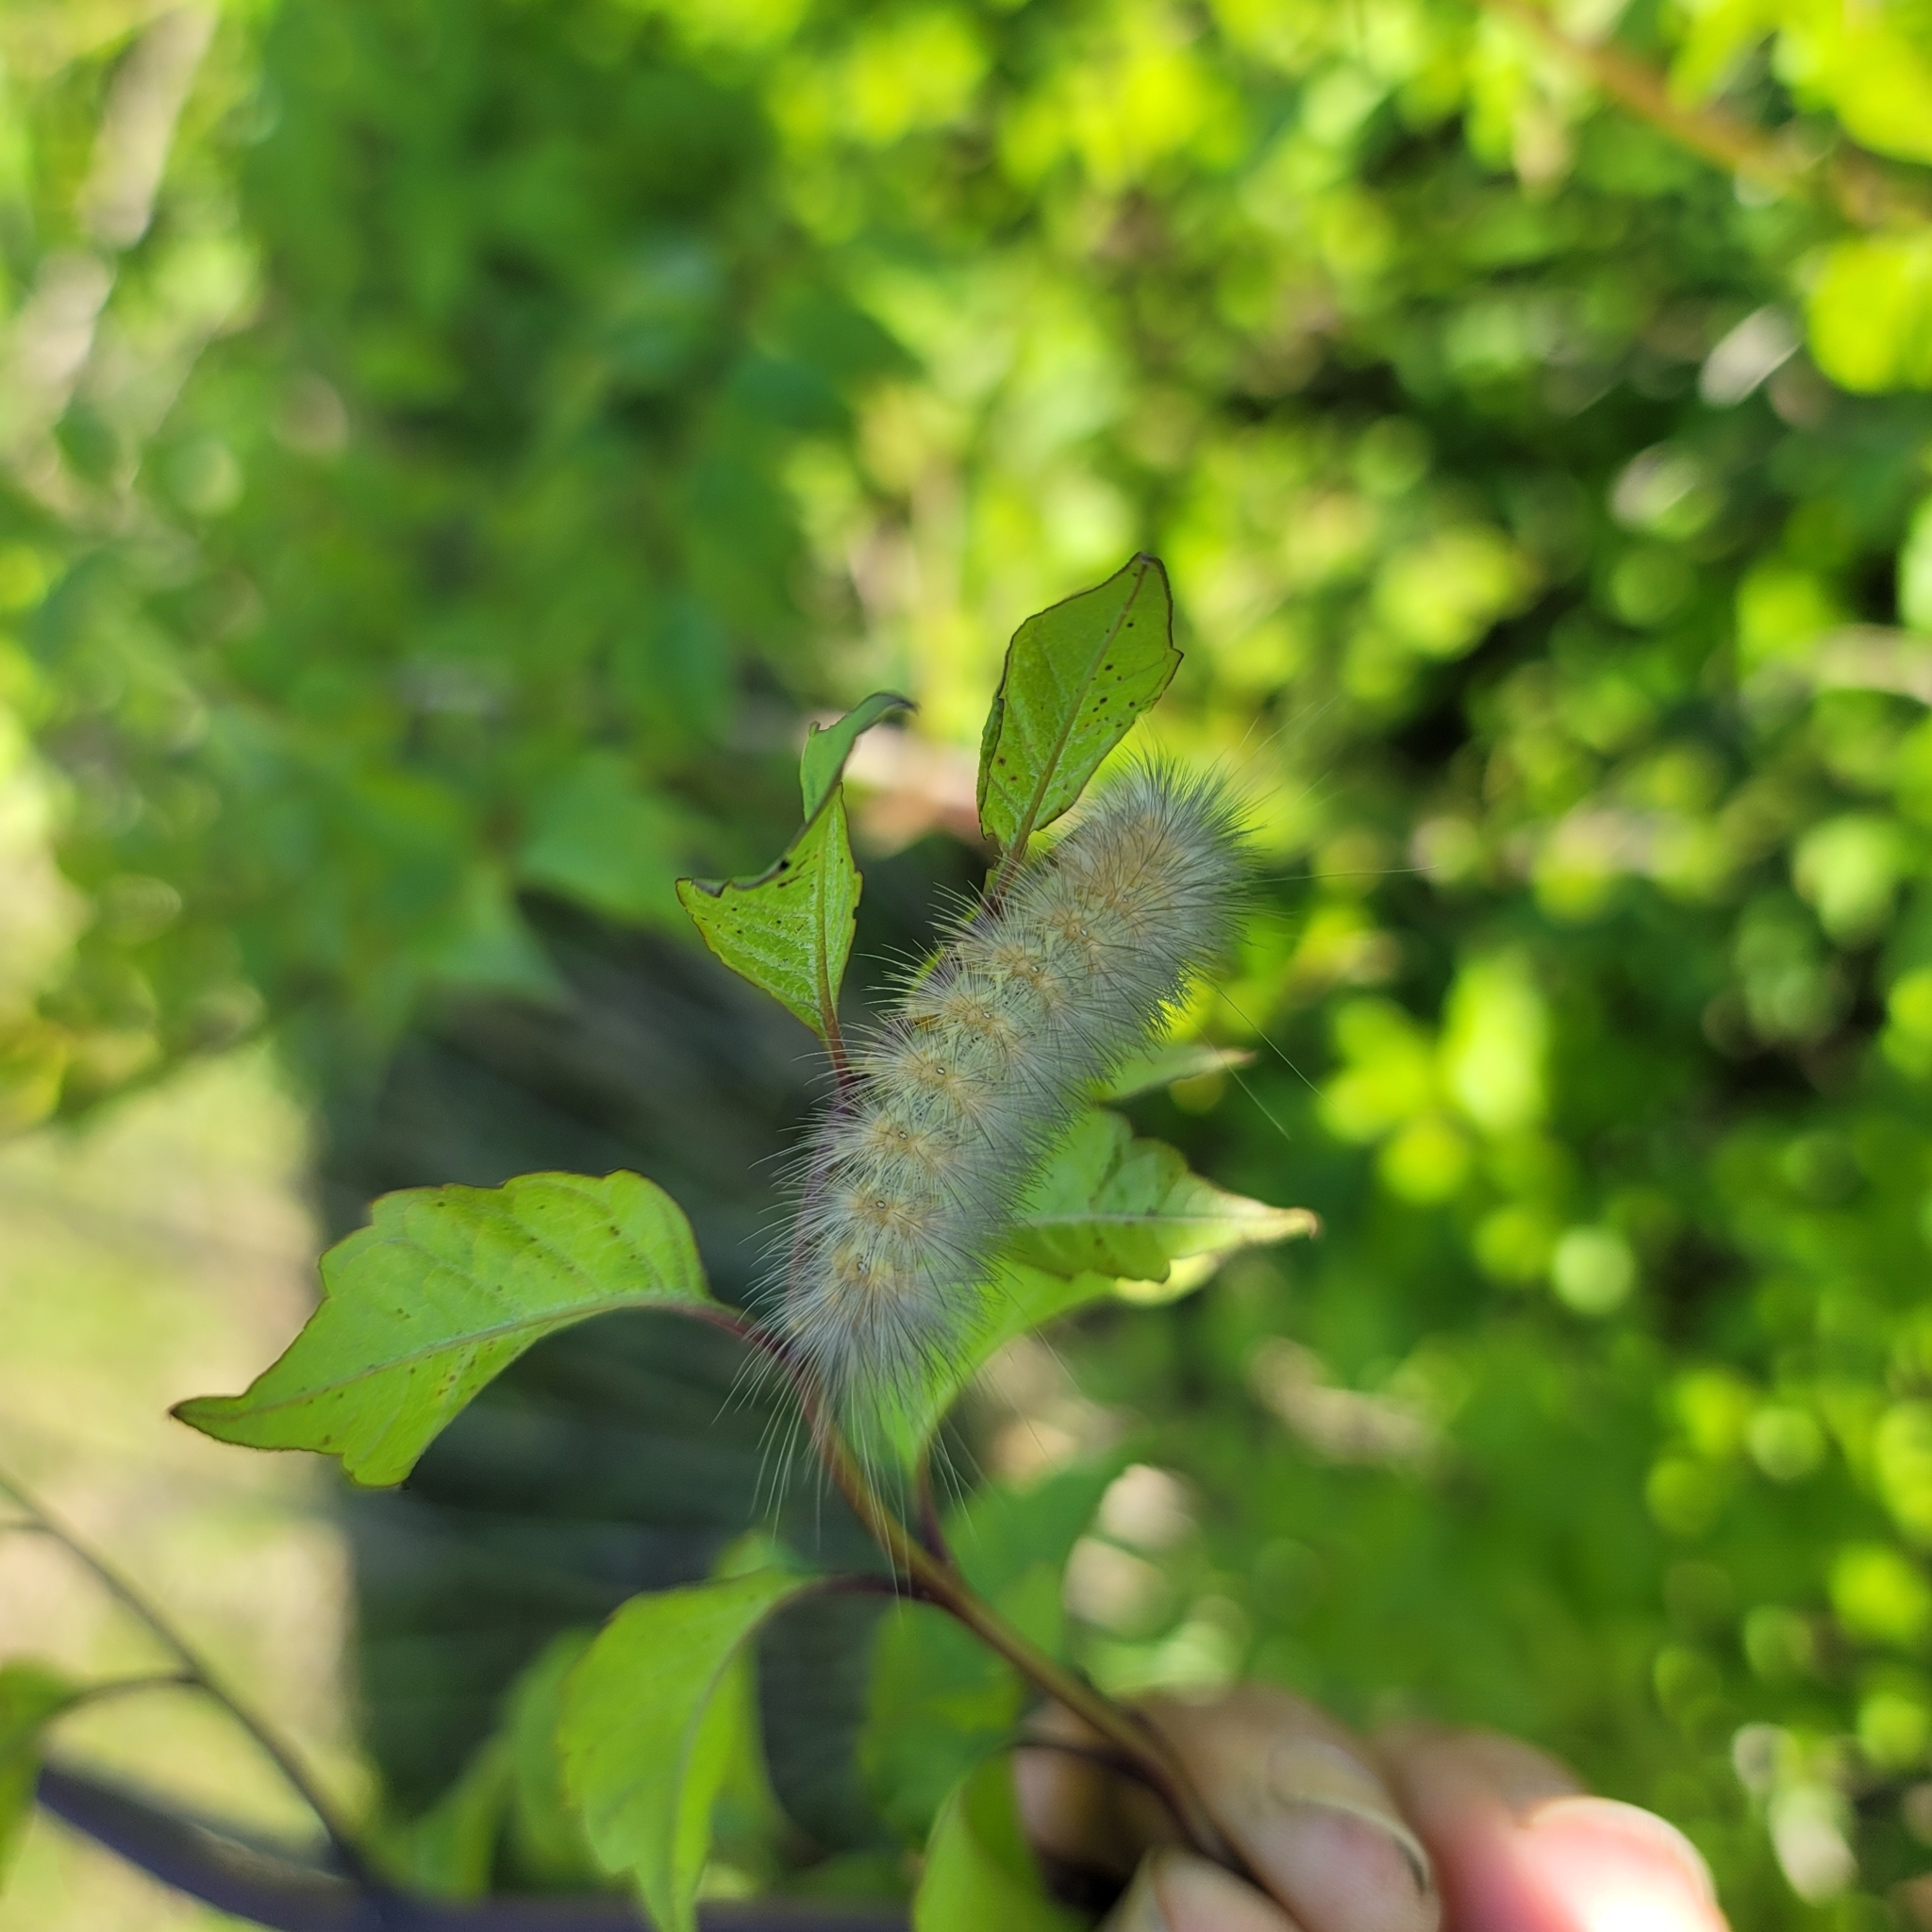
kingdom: Animalia
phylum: Arthropoda
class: Insecta
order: Lepidoptera
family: Erebidae
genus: Estigmene
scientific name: Estigmene acrea
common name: Salt marsh moth
